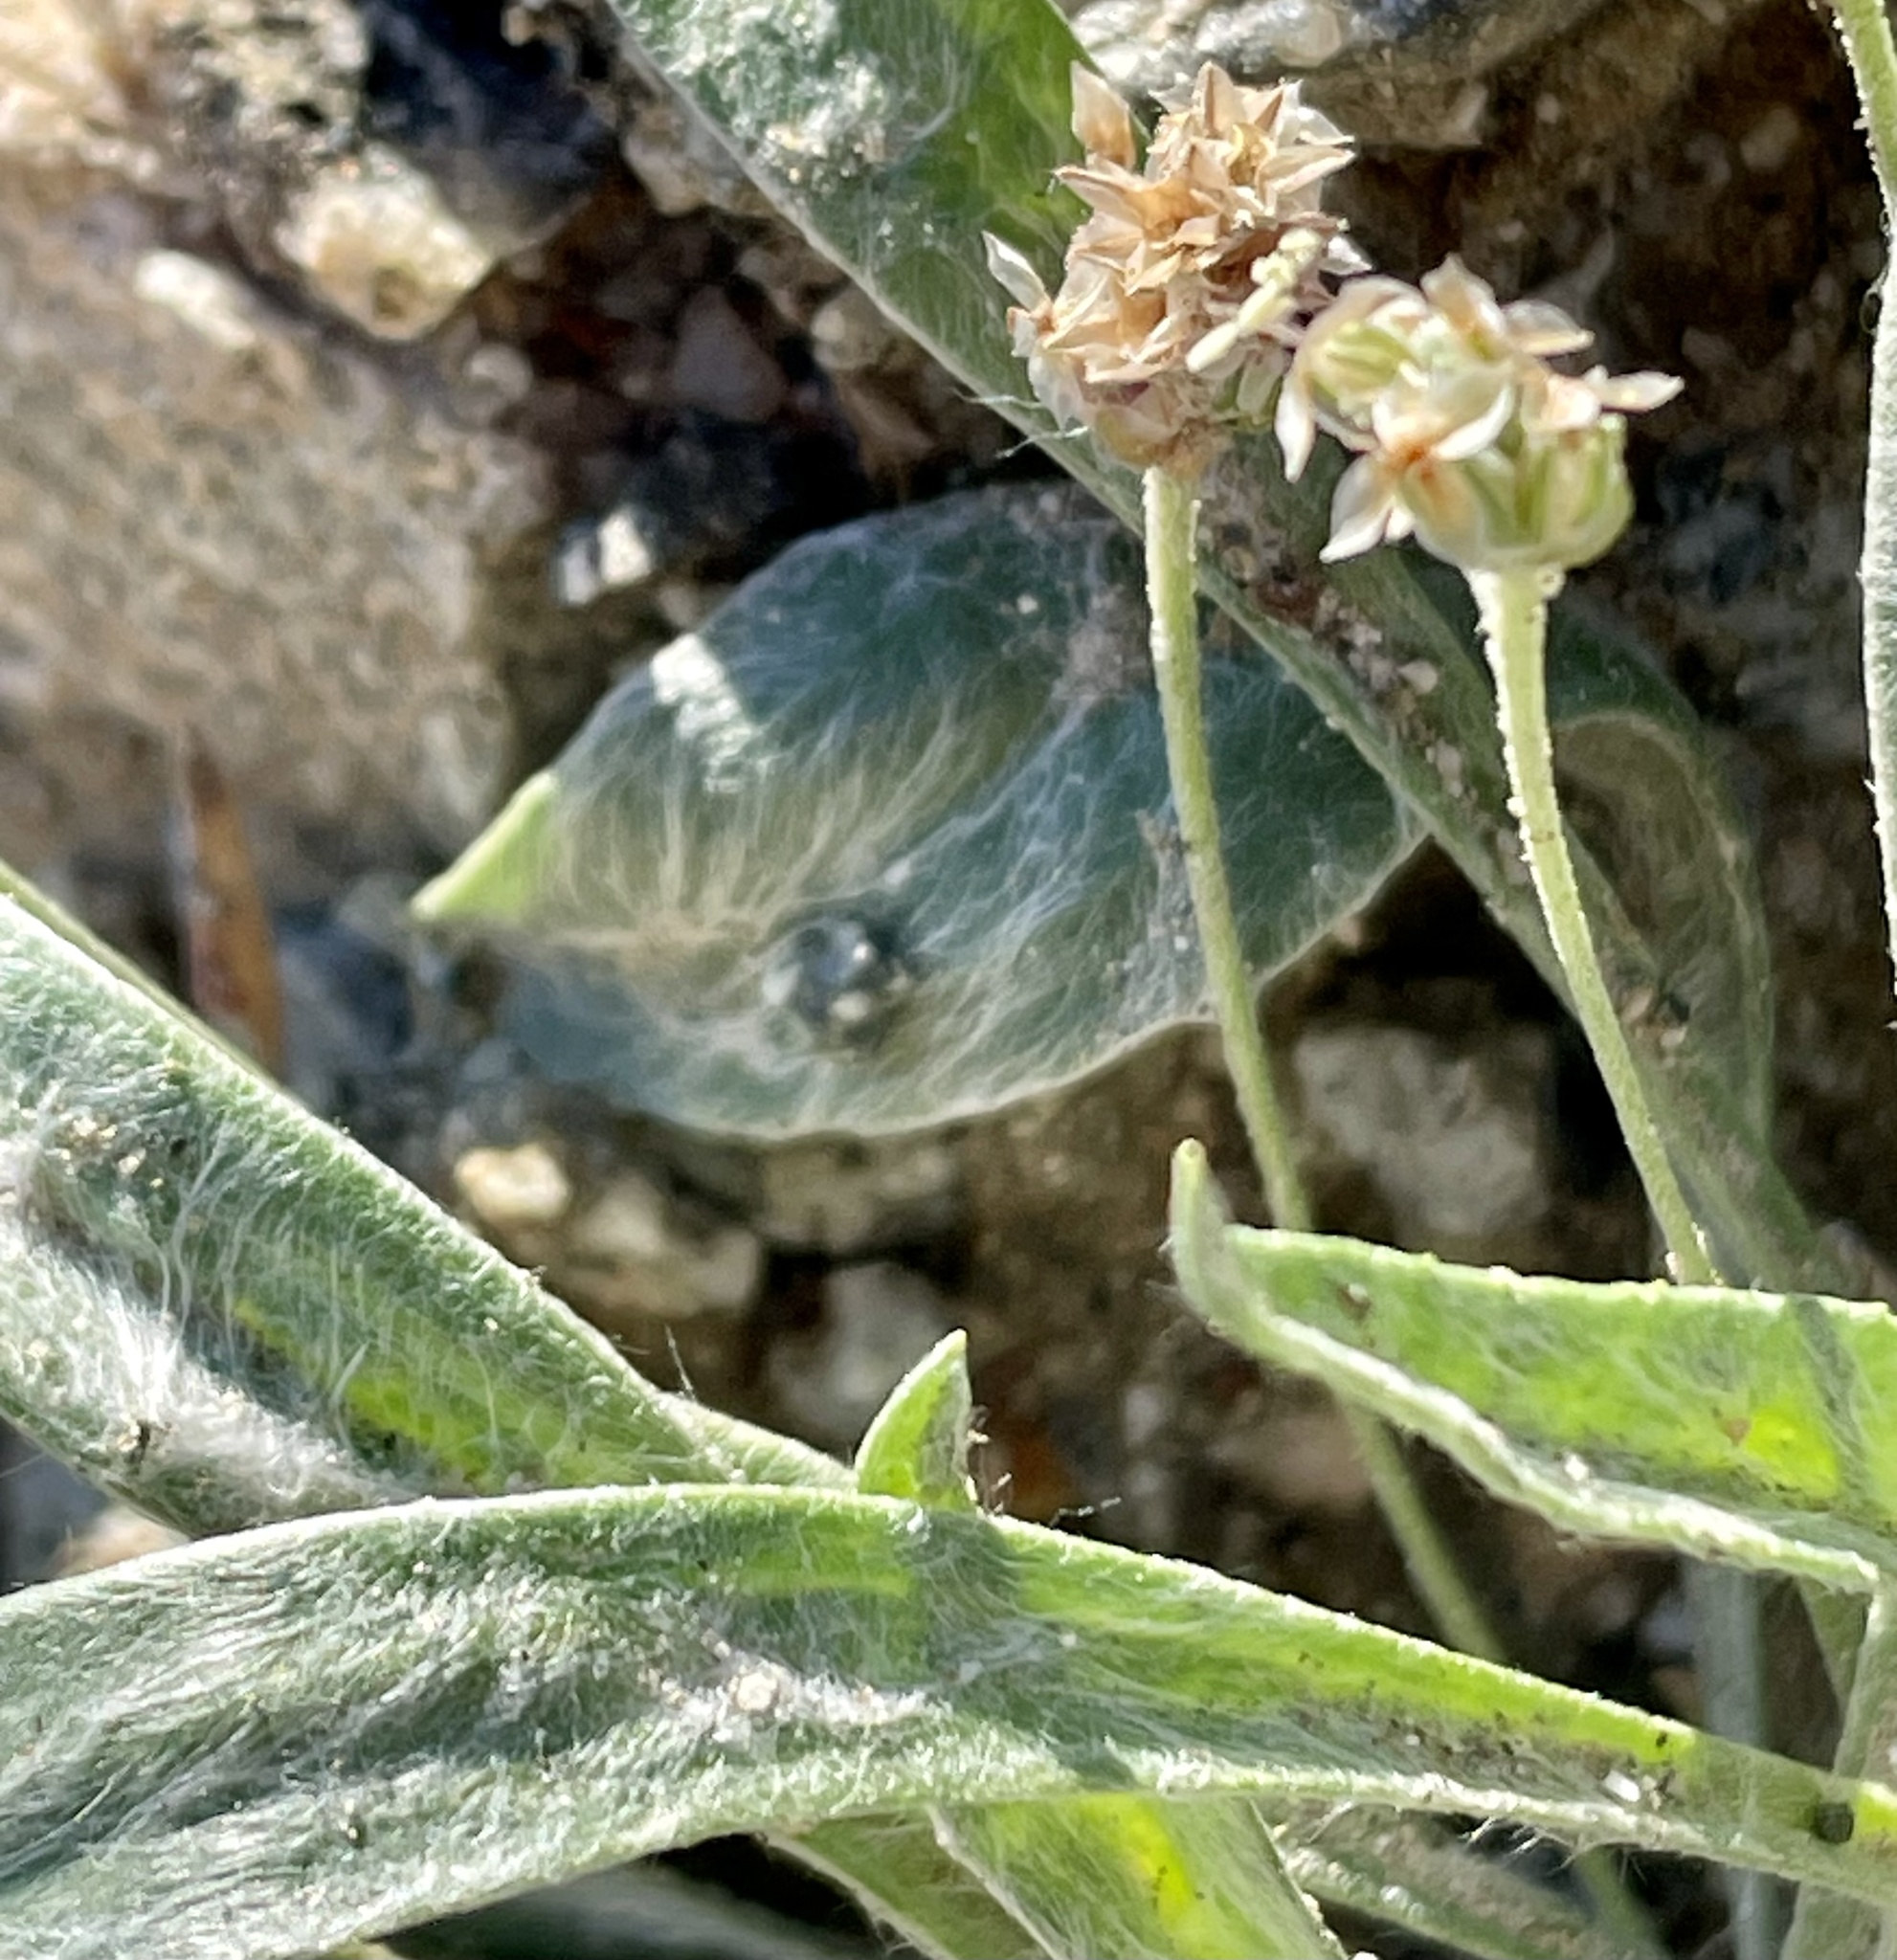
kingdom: Plantae
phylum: Tracheophyta
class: Magnoliopsida
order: Lamiales
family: Plantaginaceae
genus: Plantago
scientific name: Plantago ovata
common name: Blond plantain
